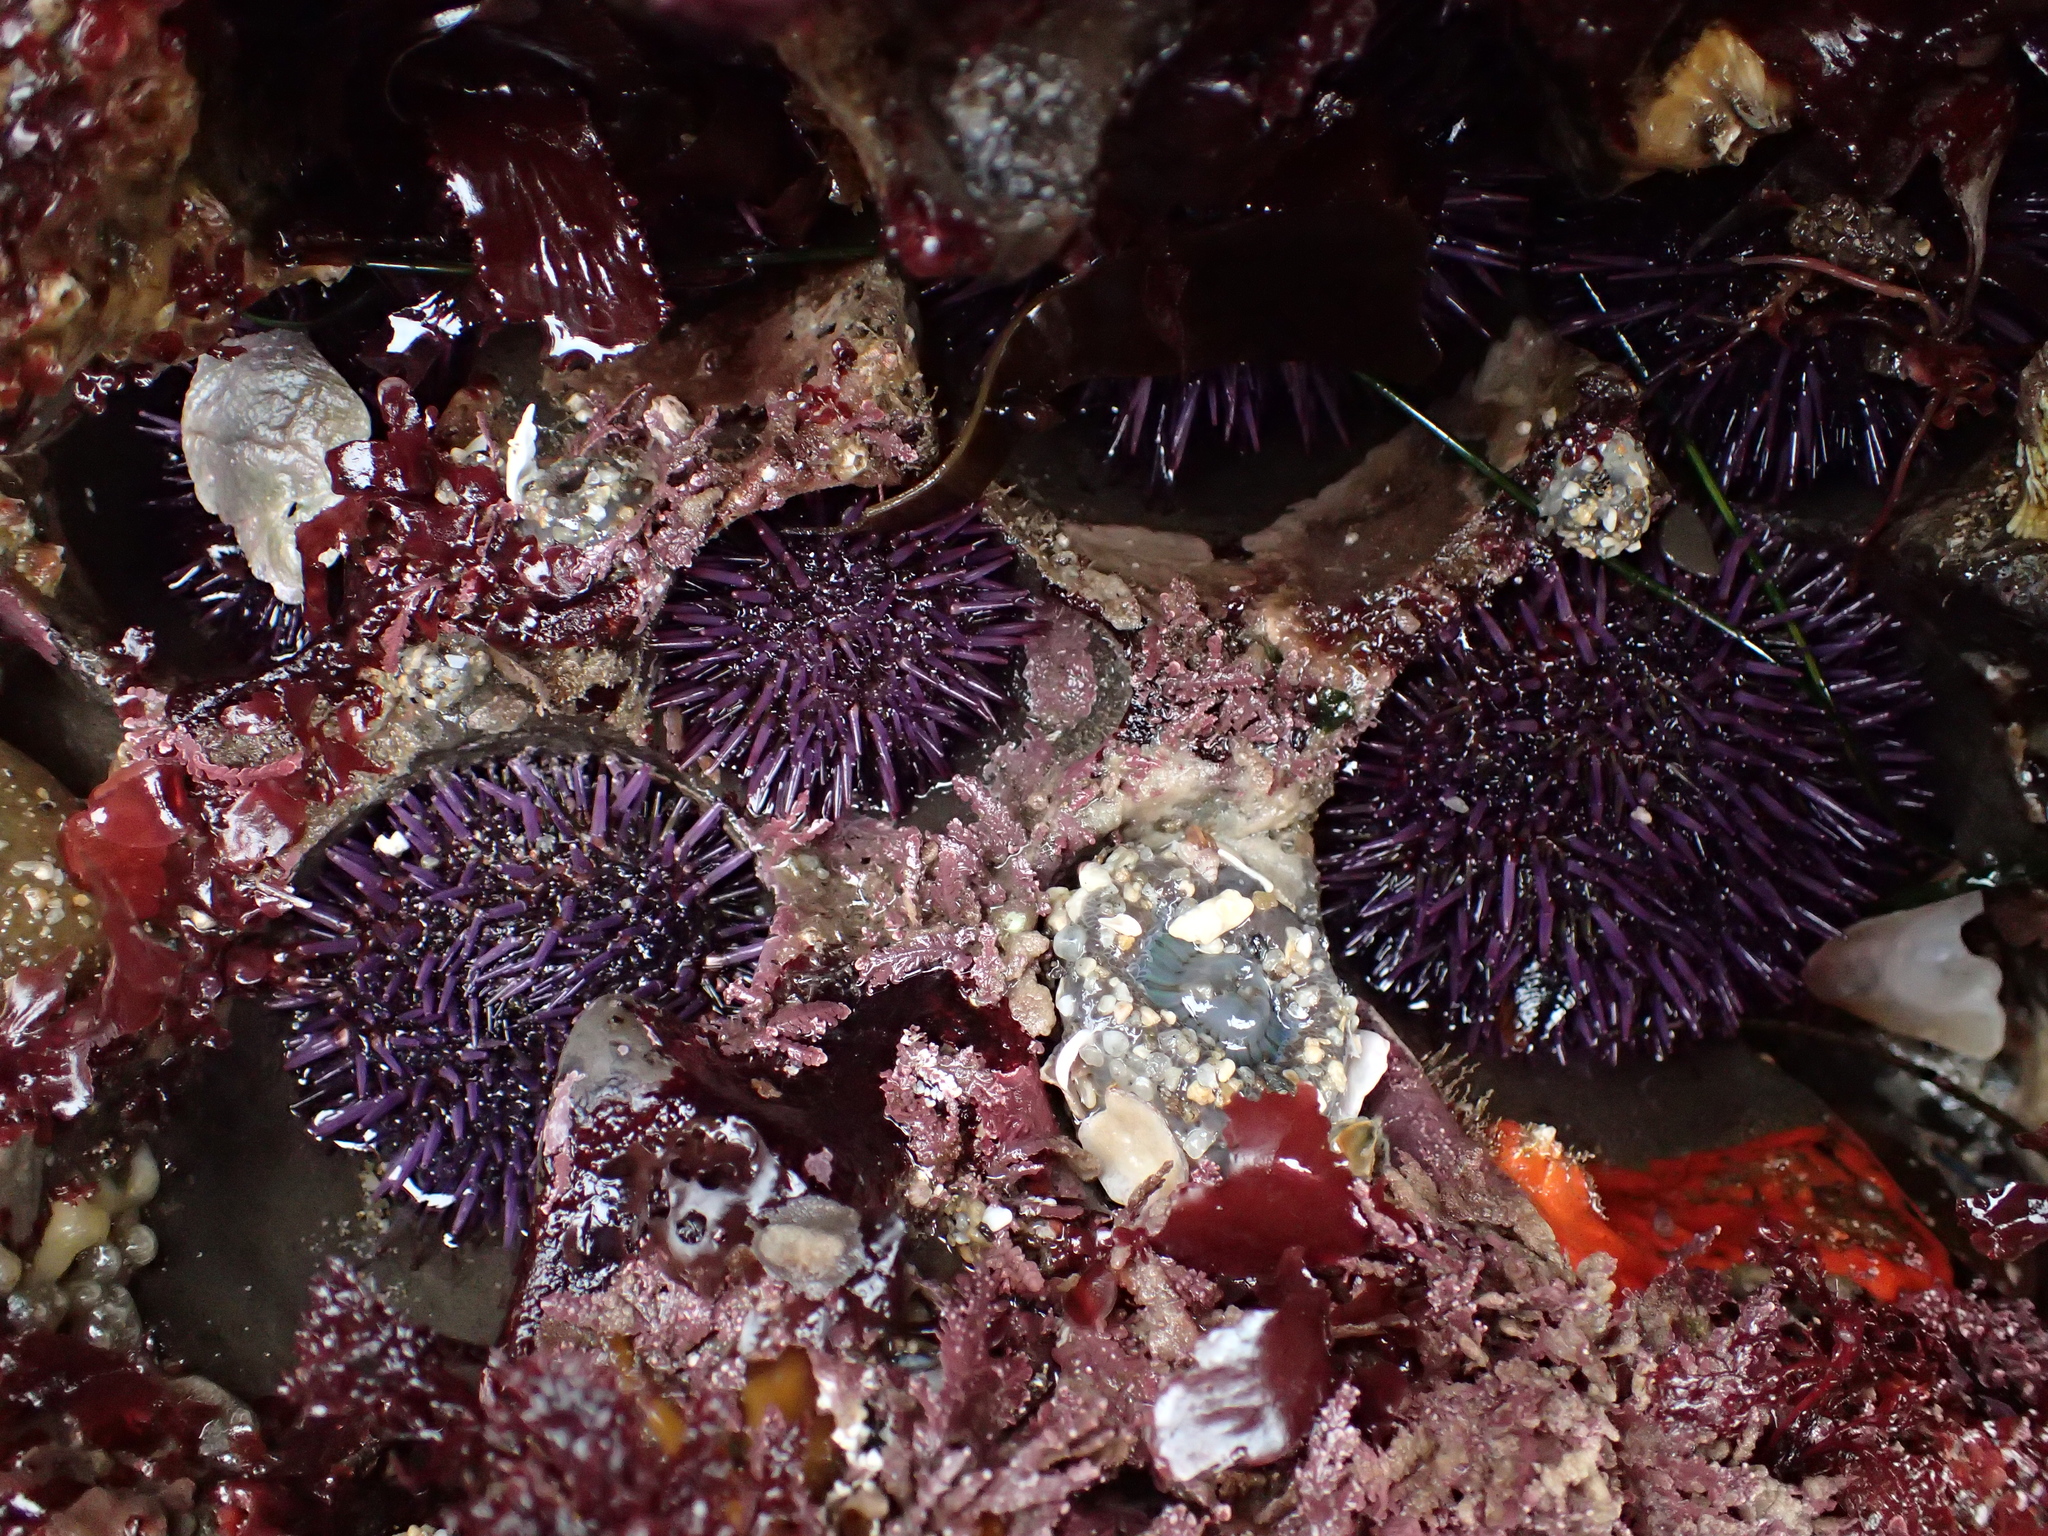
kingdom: Animalia
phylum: Echinodermata
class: Echinoidea
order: Camarodonta
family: Strongylocentrotidae
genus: Strongylocentrotus
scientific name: Strongylocentrotus purpuratus
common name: Purple sea urchin
